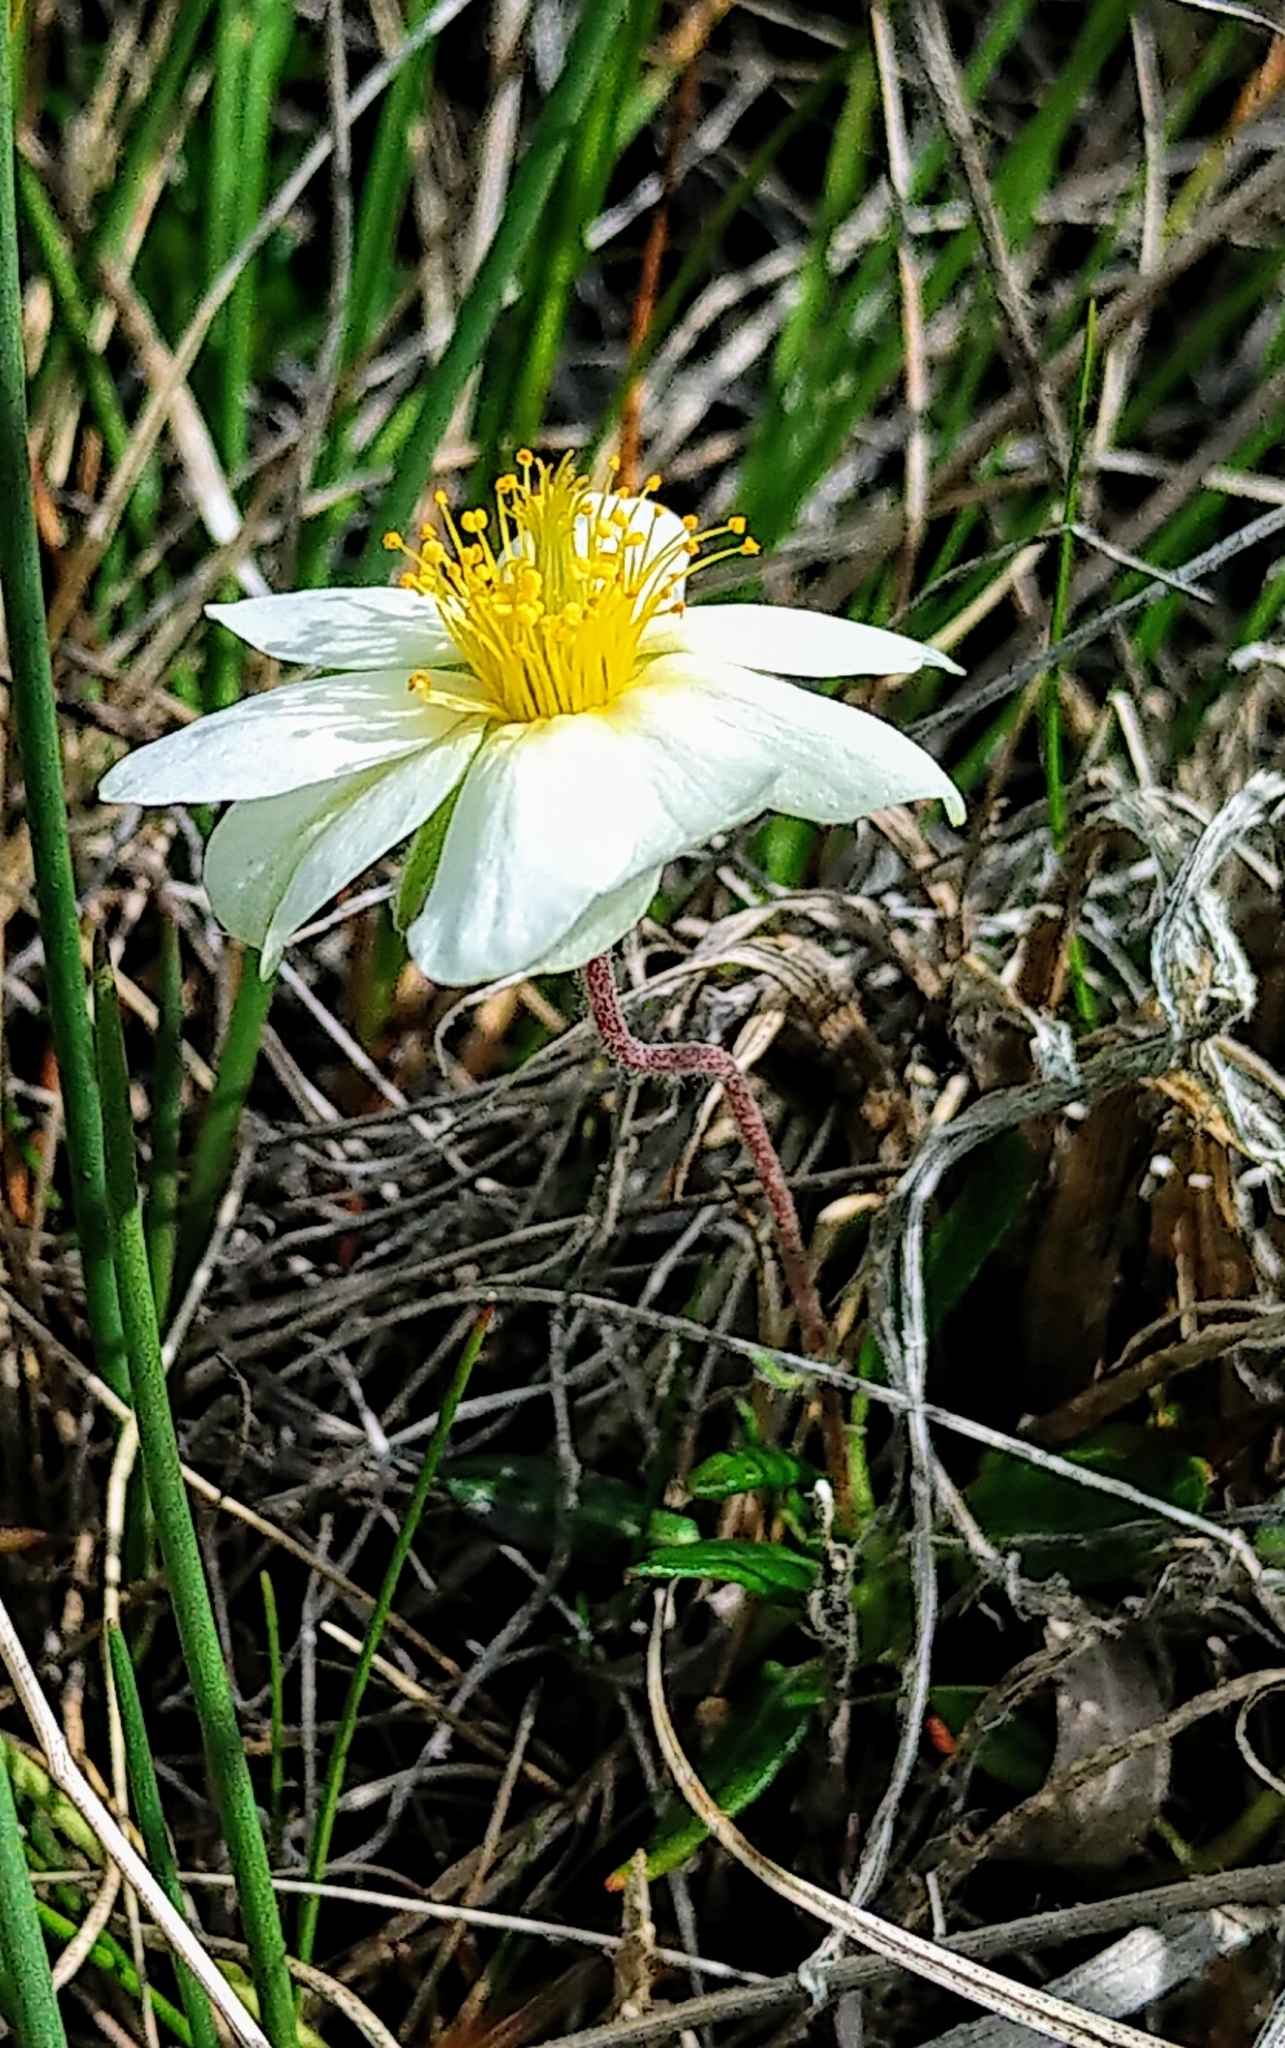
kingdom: Plantae
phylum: Tracheophyta
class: Magnoliopsida
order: Rosales
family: Rosaceae
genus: Dryas
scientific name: Dryas integrifolia
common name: Entire-leaved mountain avens
